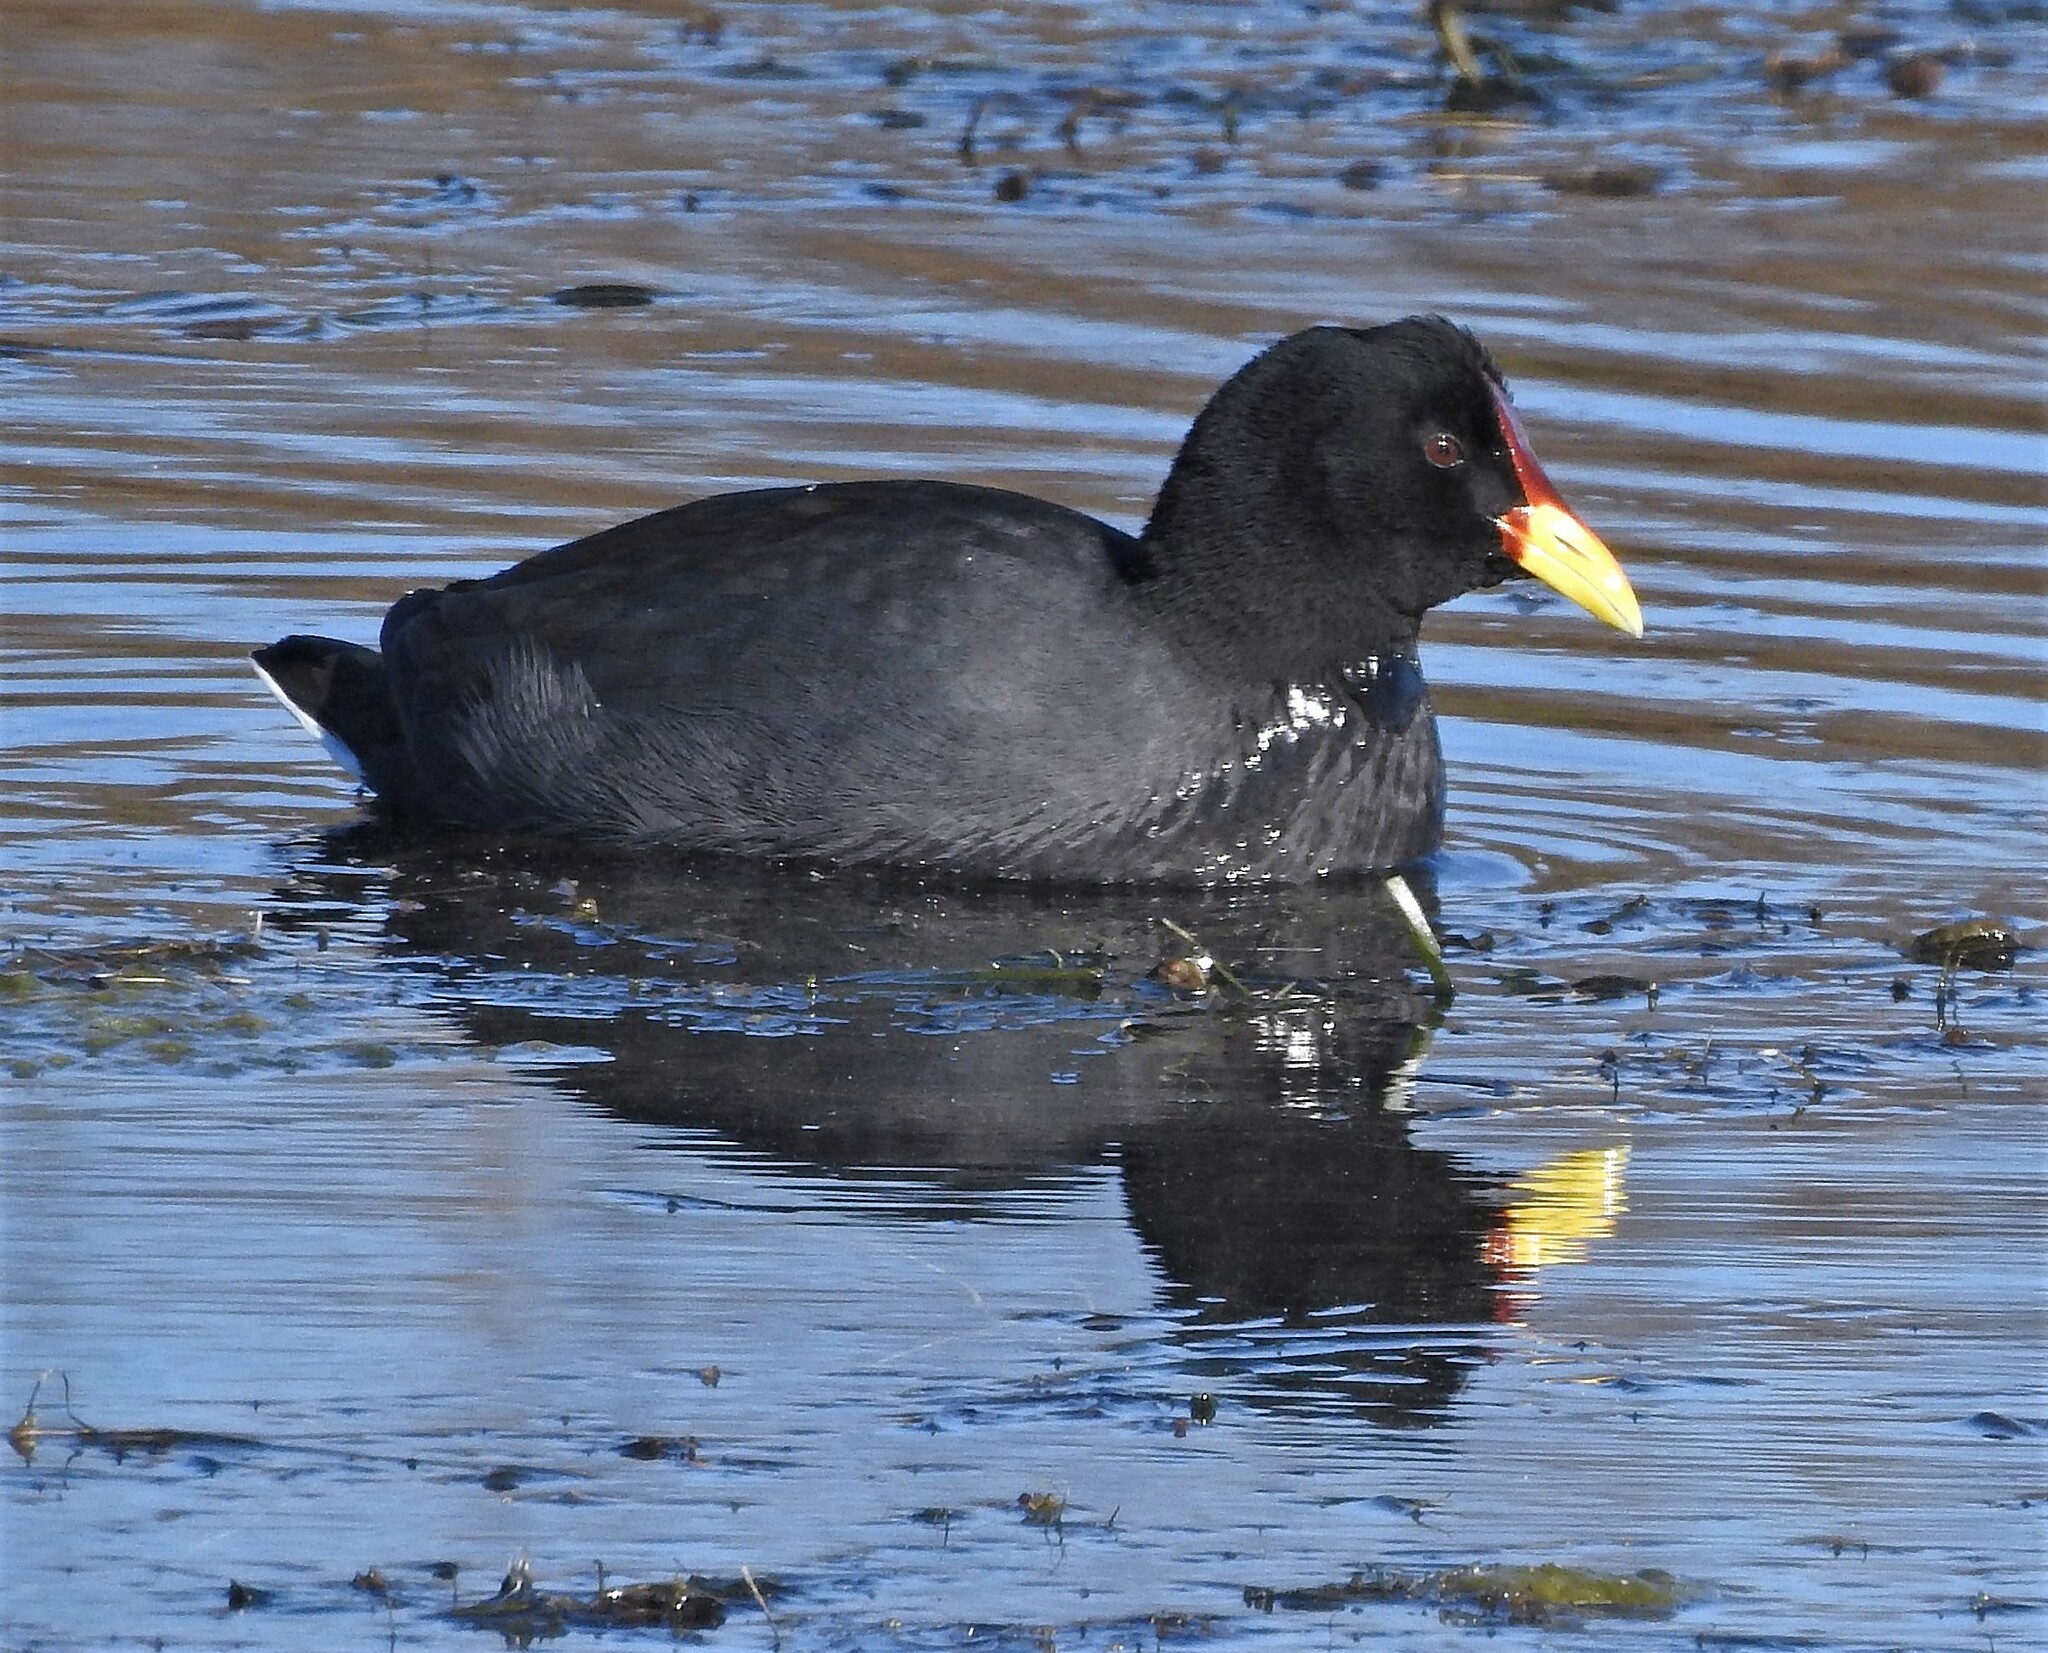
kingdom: Animalia
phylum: Chordata
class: Aves
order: Gruiformes
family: Rallidae
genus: Fulica
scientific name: Fulica rufifrons
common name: Red-fronted coot
